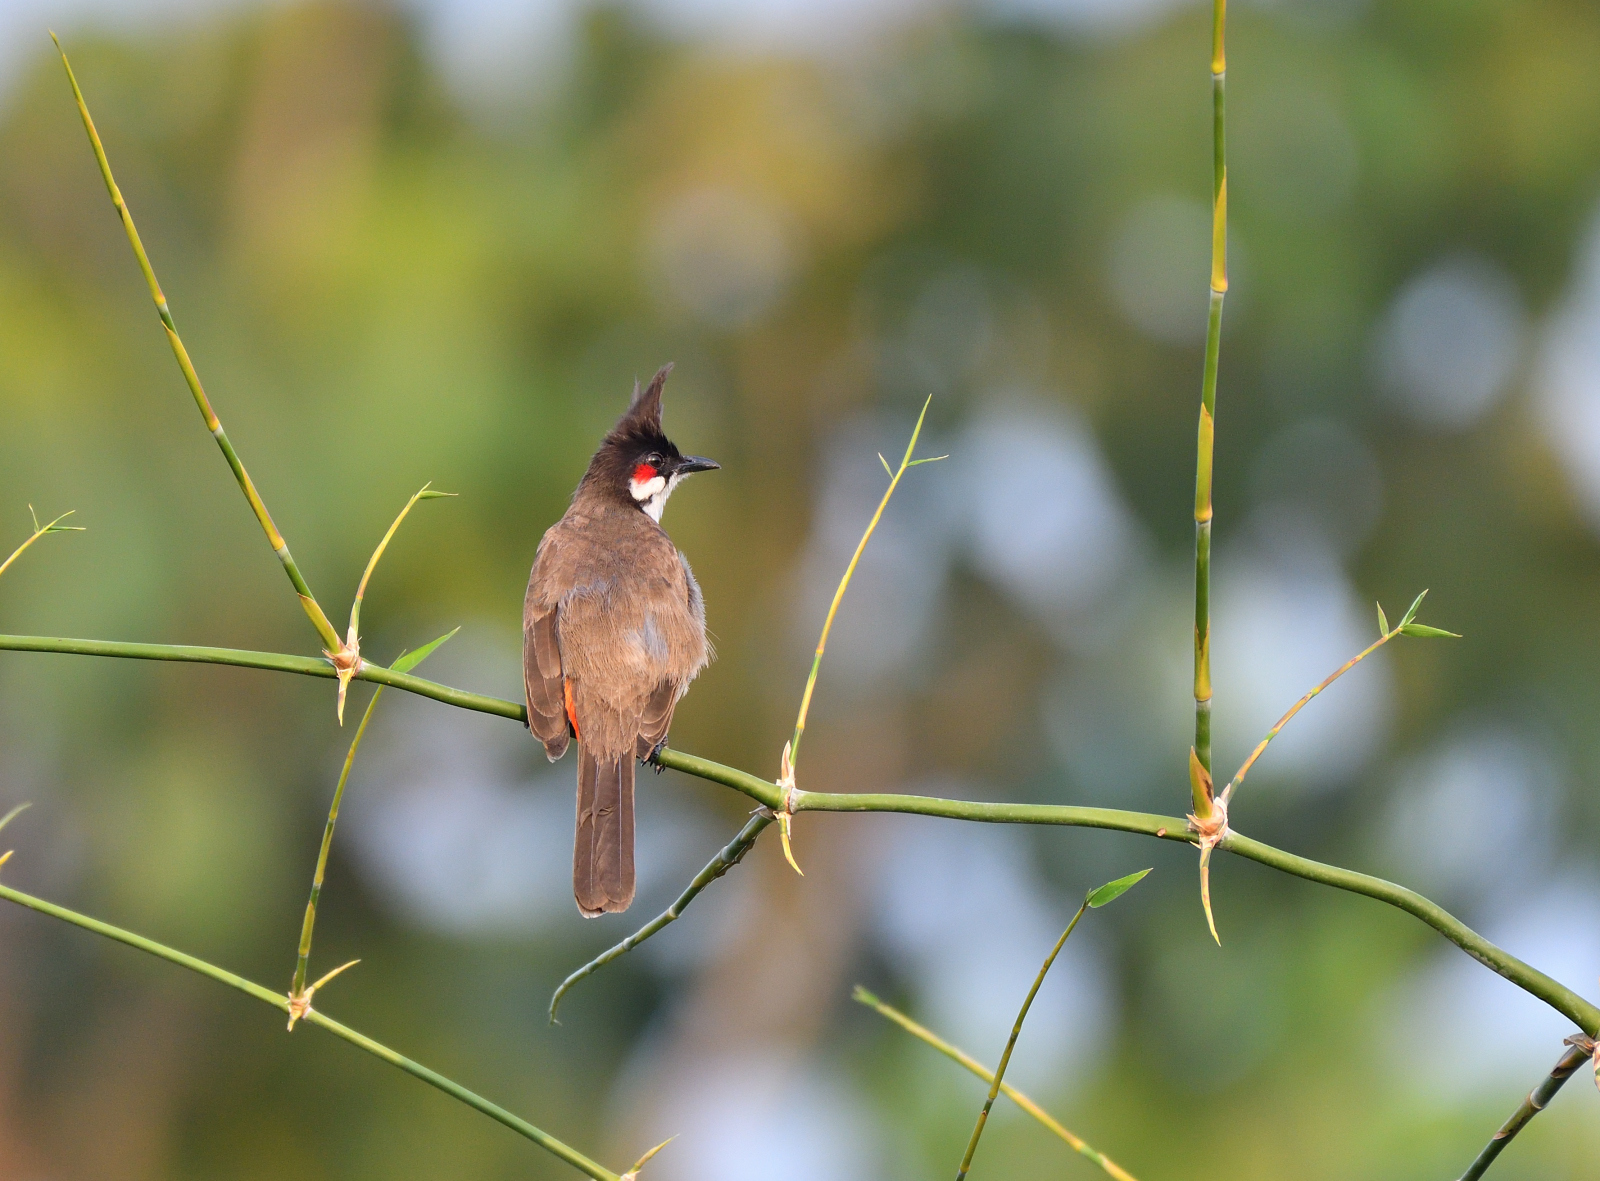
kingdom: Animalia
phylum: Chordata
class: Aves
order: Passeriformes
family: Pycnonotidae
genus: Pycnonotus
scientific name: Pycnonotus jocosus
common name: Red-whiskered bulbul
